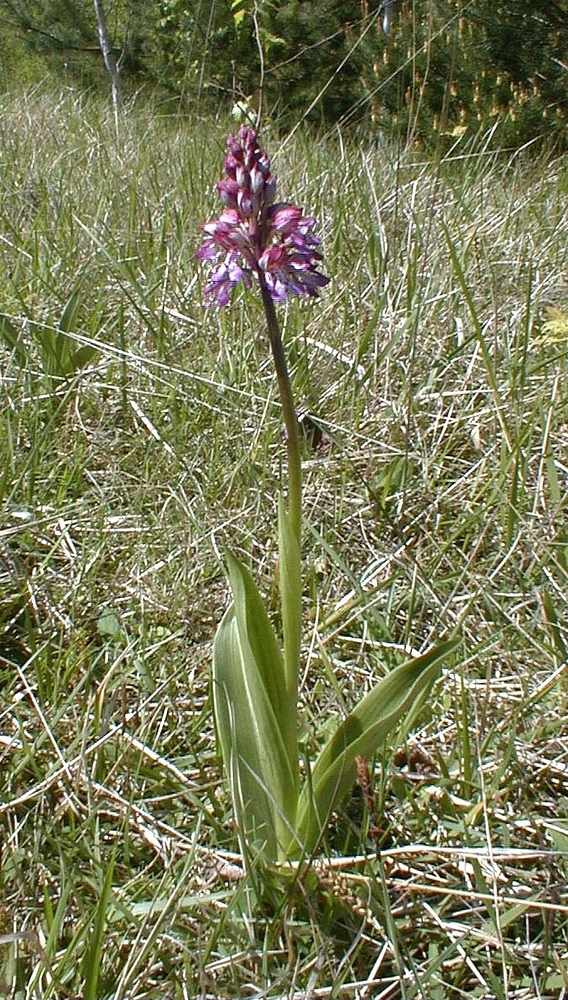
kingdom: Plantae
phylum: Tracheophyta
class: Liliopsida
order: Asparagales
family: Orchidaceae
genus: Orchis
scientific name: Orchis purpurea
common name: Lady orchid
